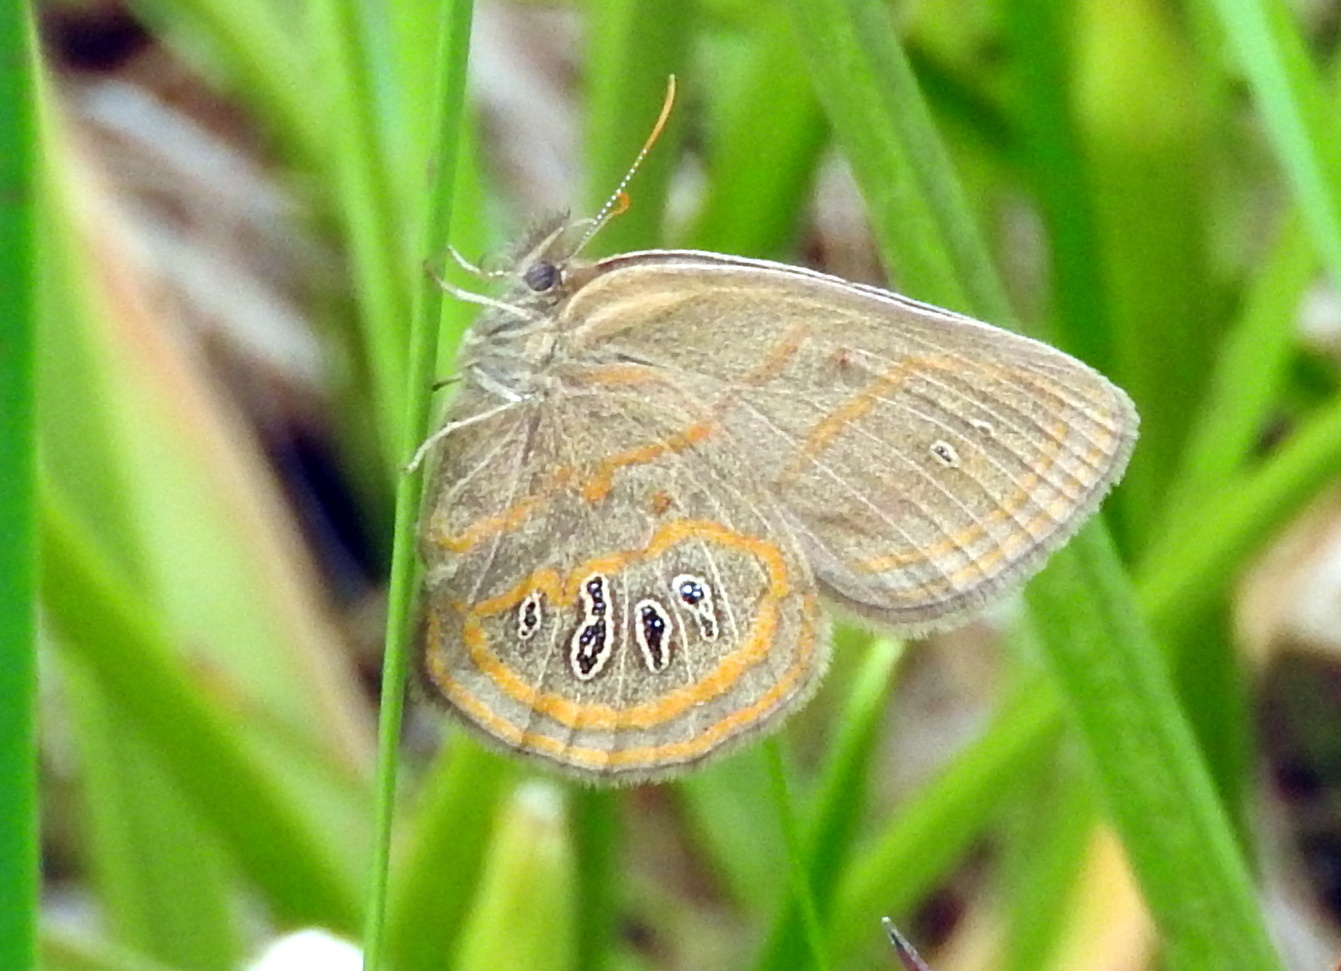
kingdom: Animalia
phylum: Arthropoda
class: Insecta
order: Lepidoptera
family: Nymphalidae
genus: Euptychia
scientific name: Euptychia phocion
